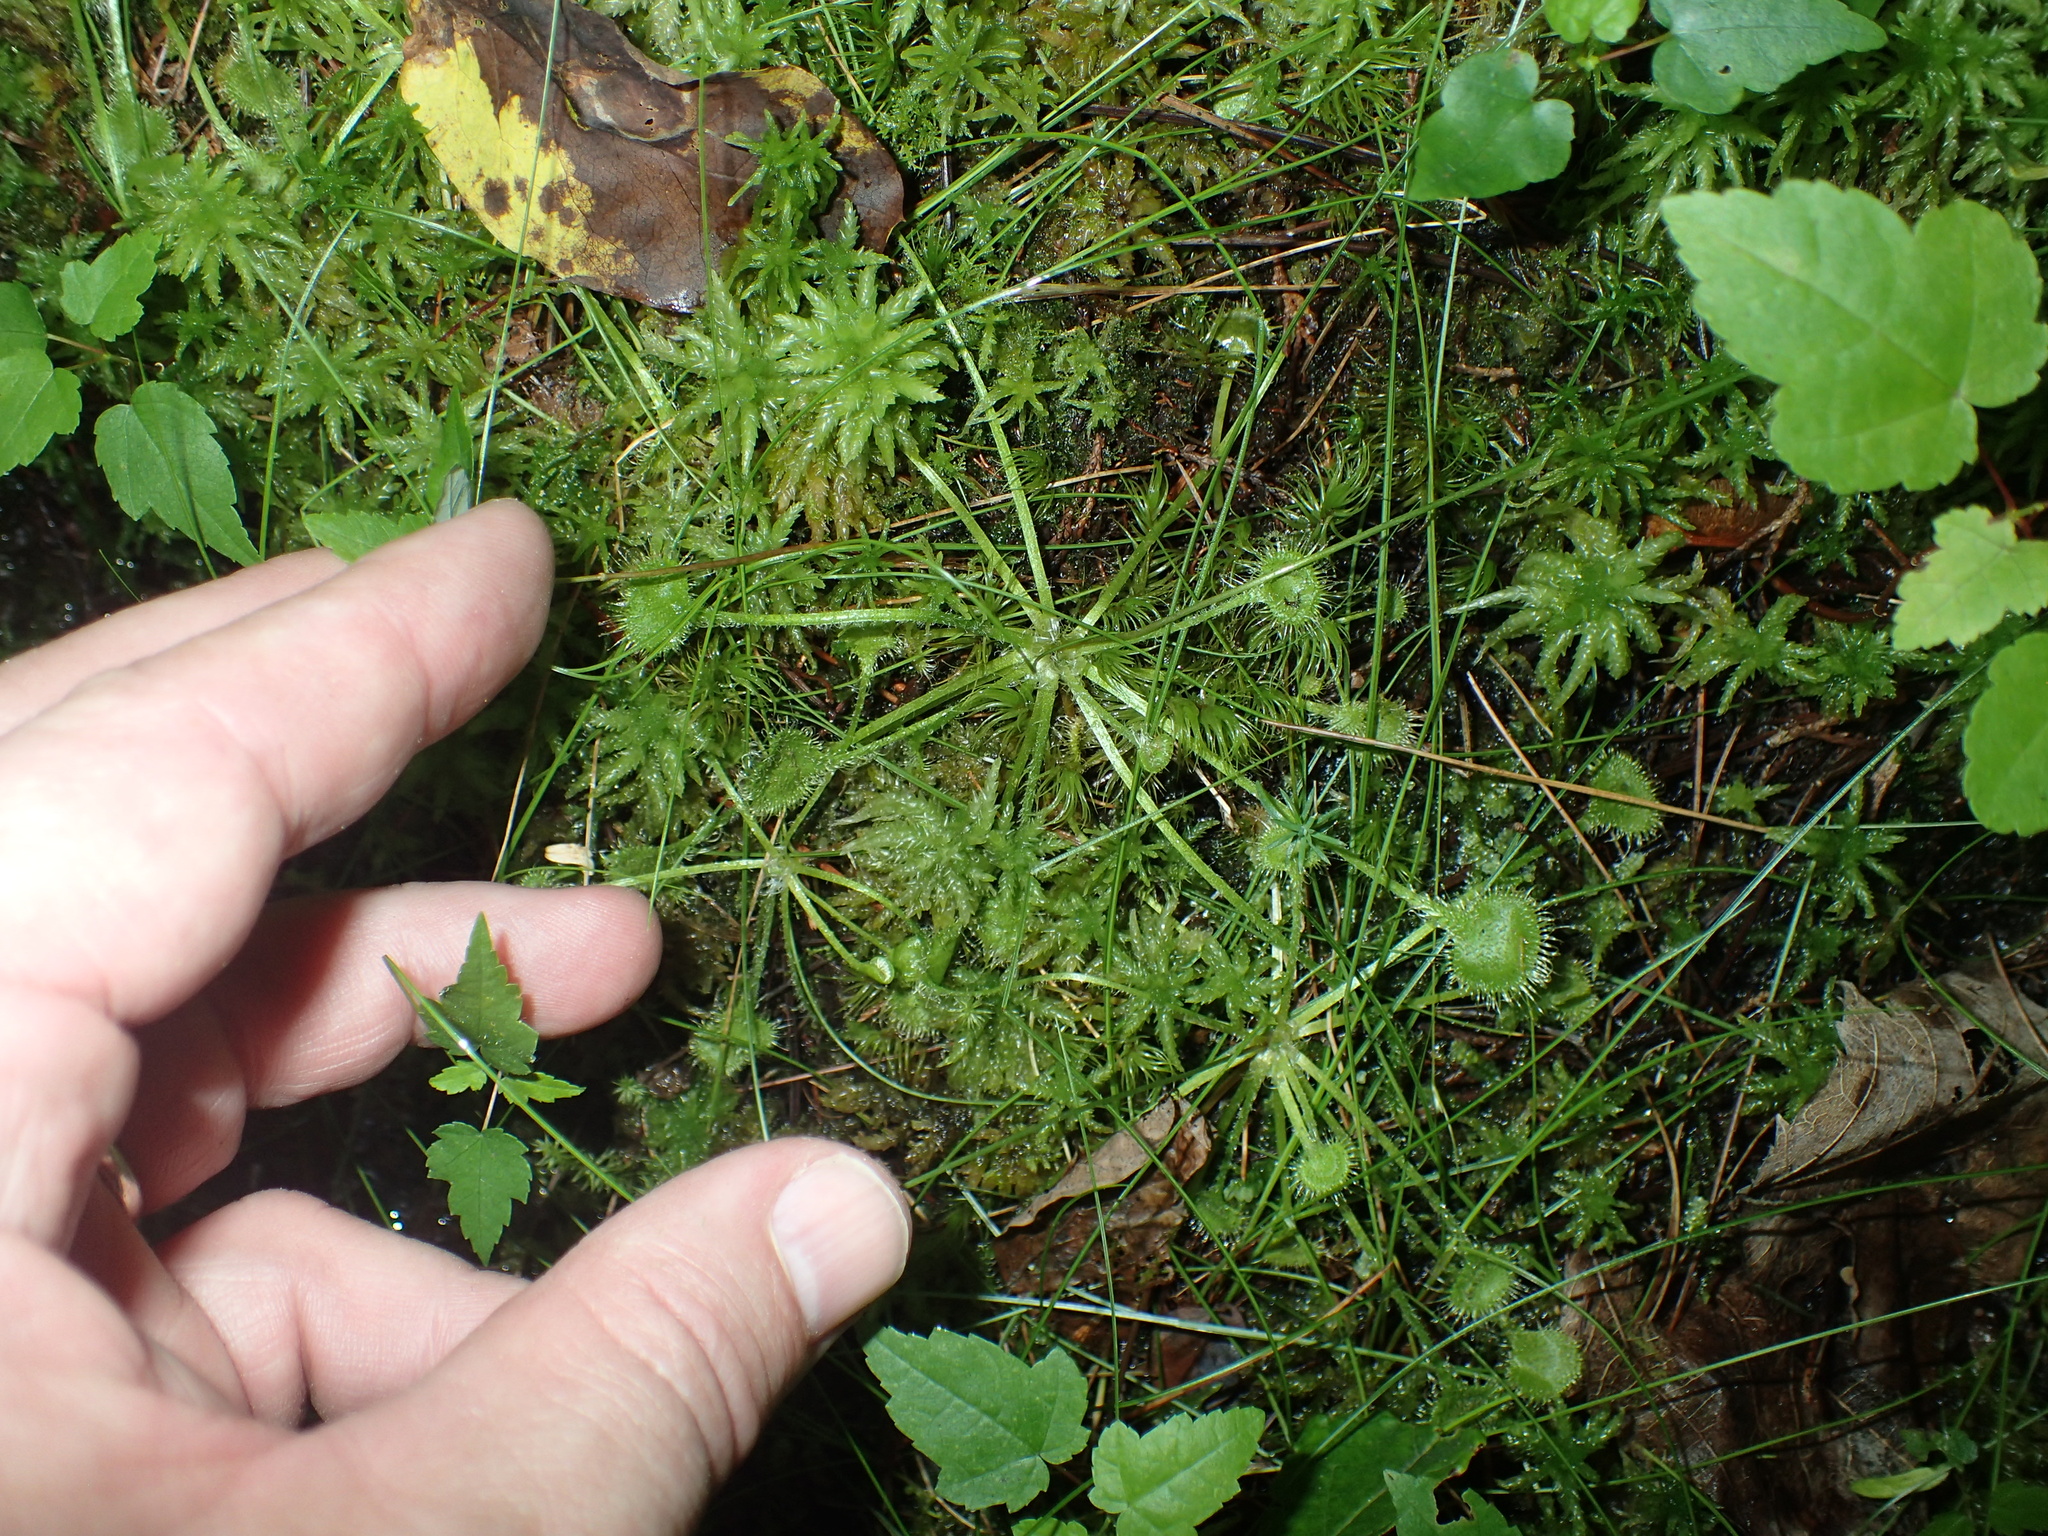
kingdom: Plantae
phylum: Tracheophyta
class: Magnoliopsida
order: Caryophyllales
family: Droseraceae
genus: Drosera
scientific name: Drosera rotundifolia
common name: Round-leaved sundew
